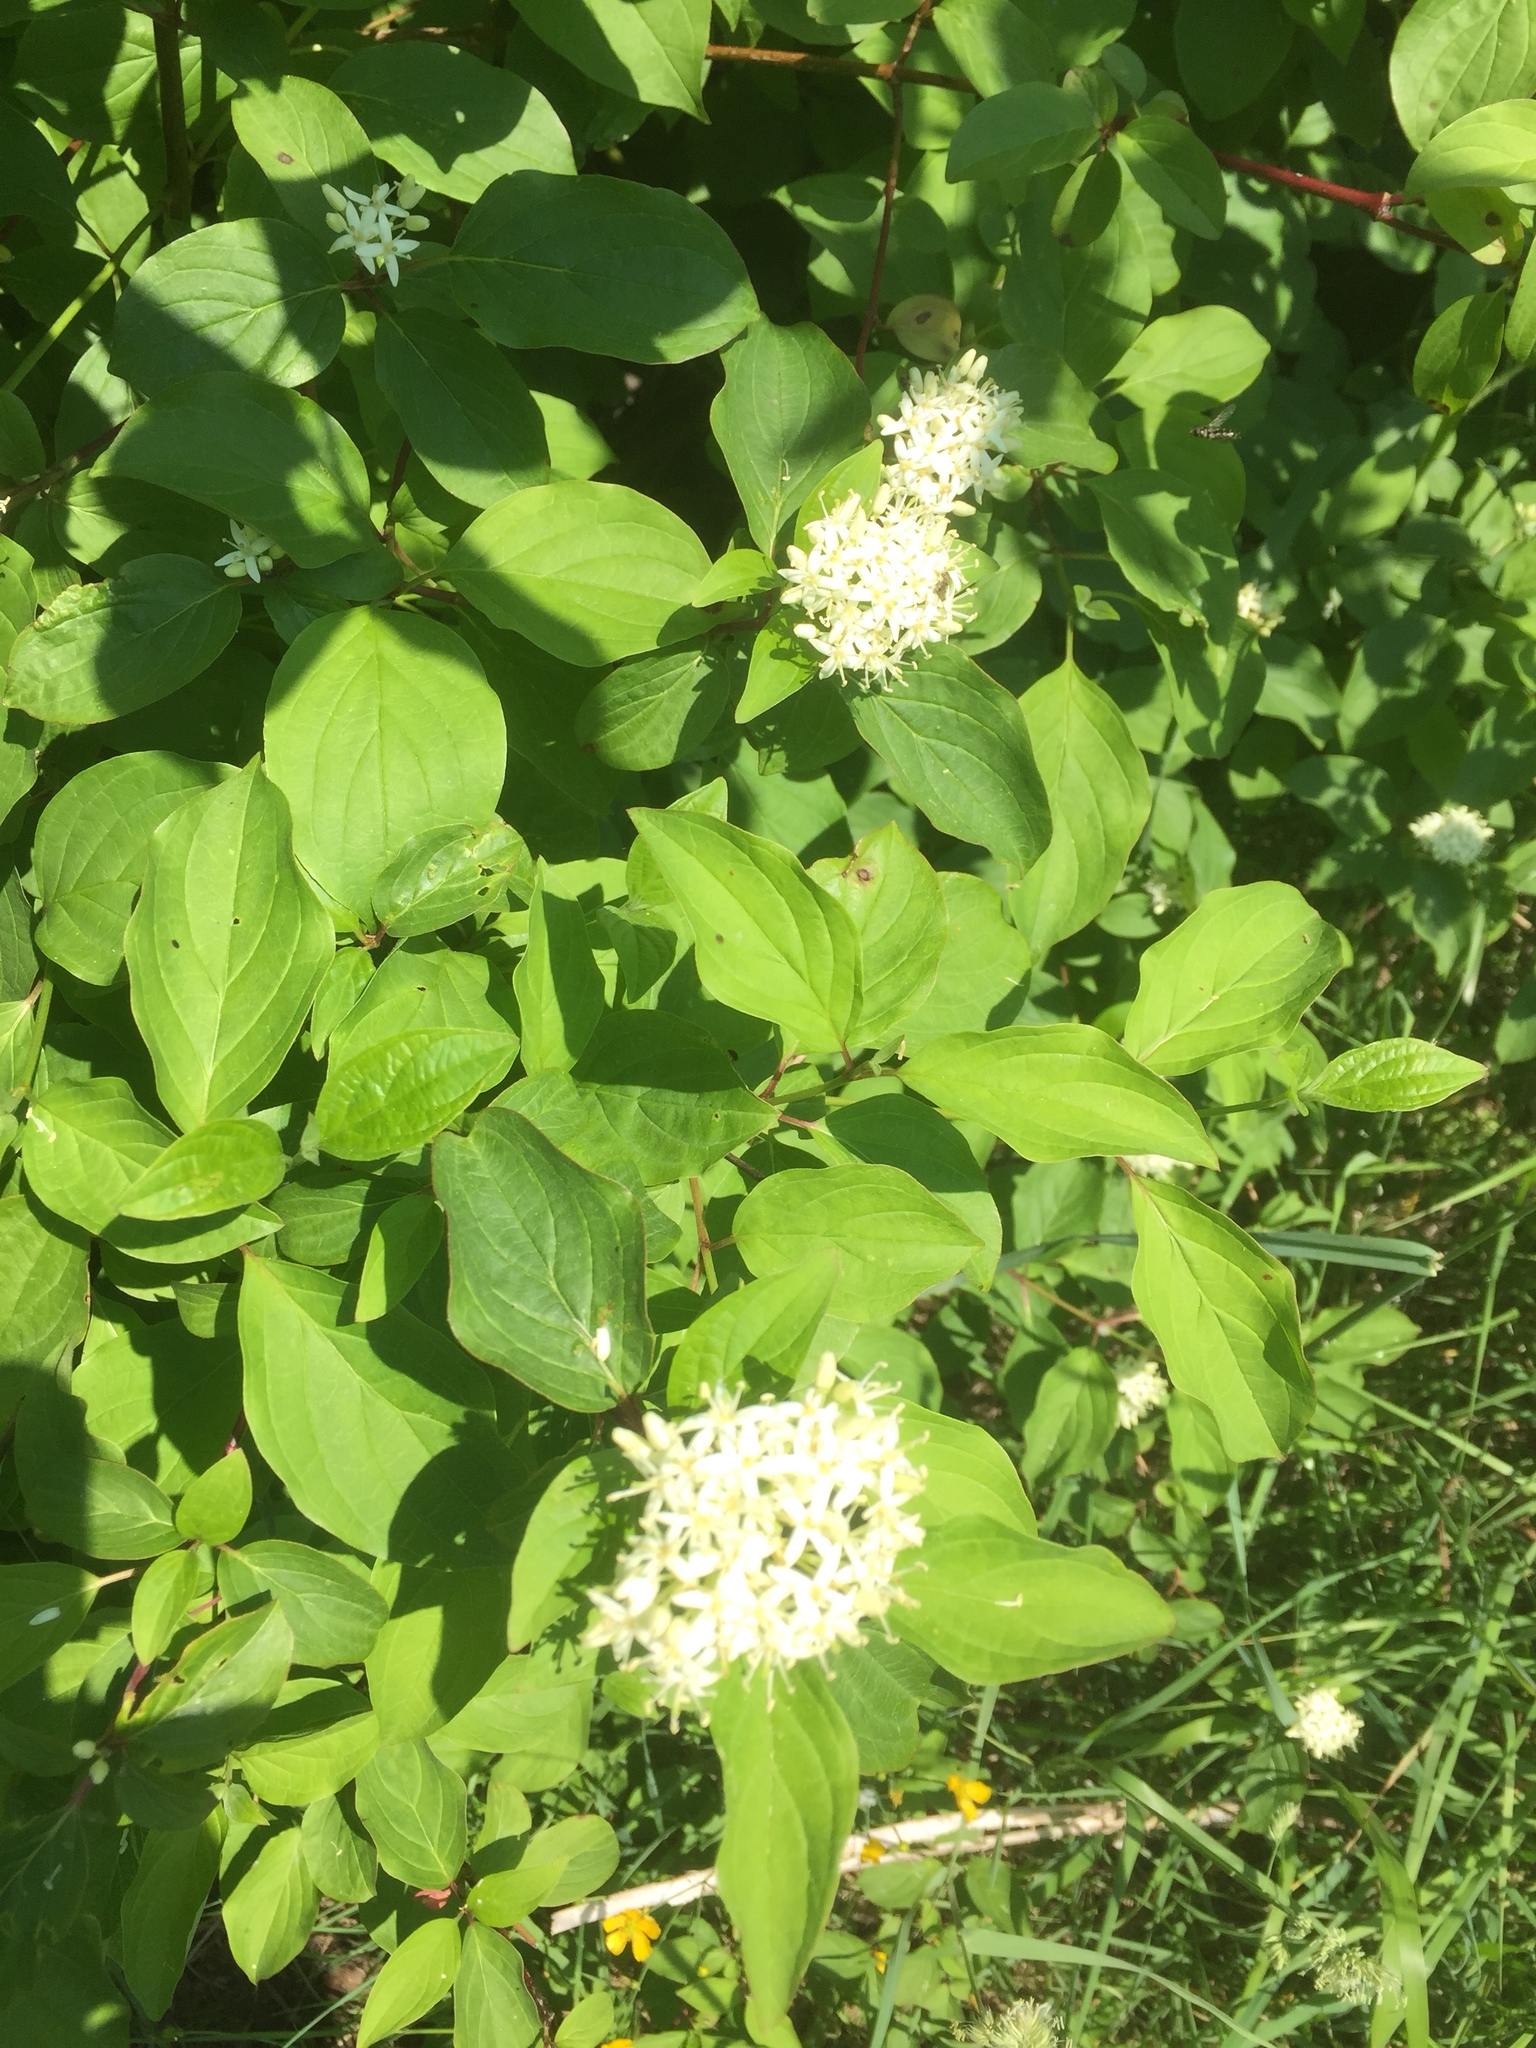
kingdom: Plantae
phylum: Tracheophyta
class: Magnoliopsida
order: Cornales
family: Cornaceae
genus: Cornus
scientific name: Cornus sericea
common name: Red-osier dogwood
